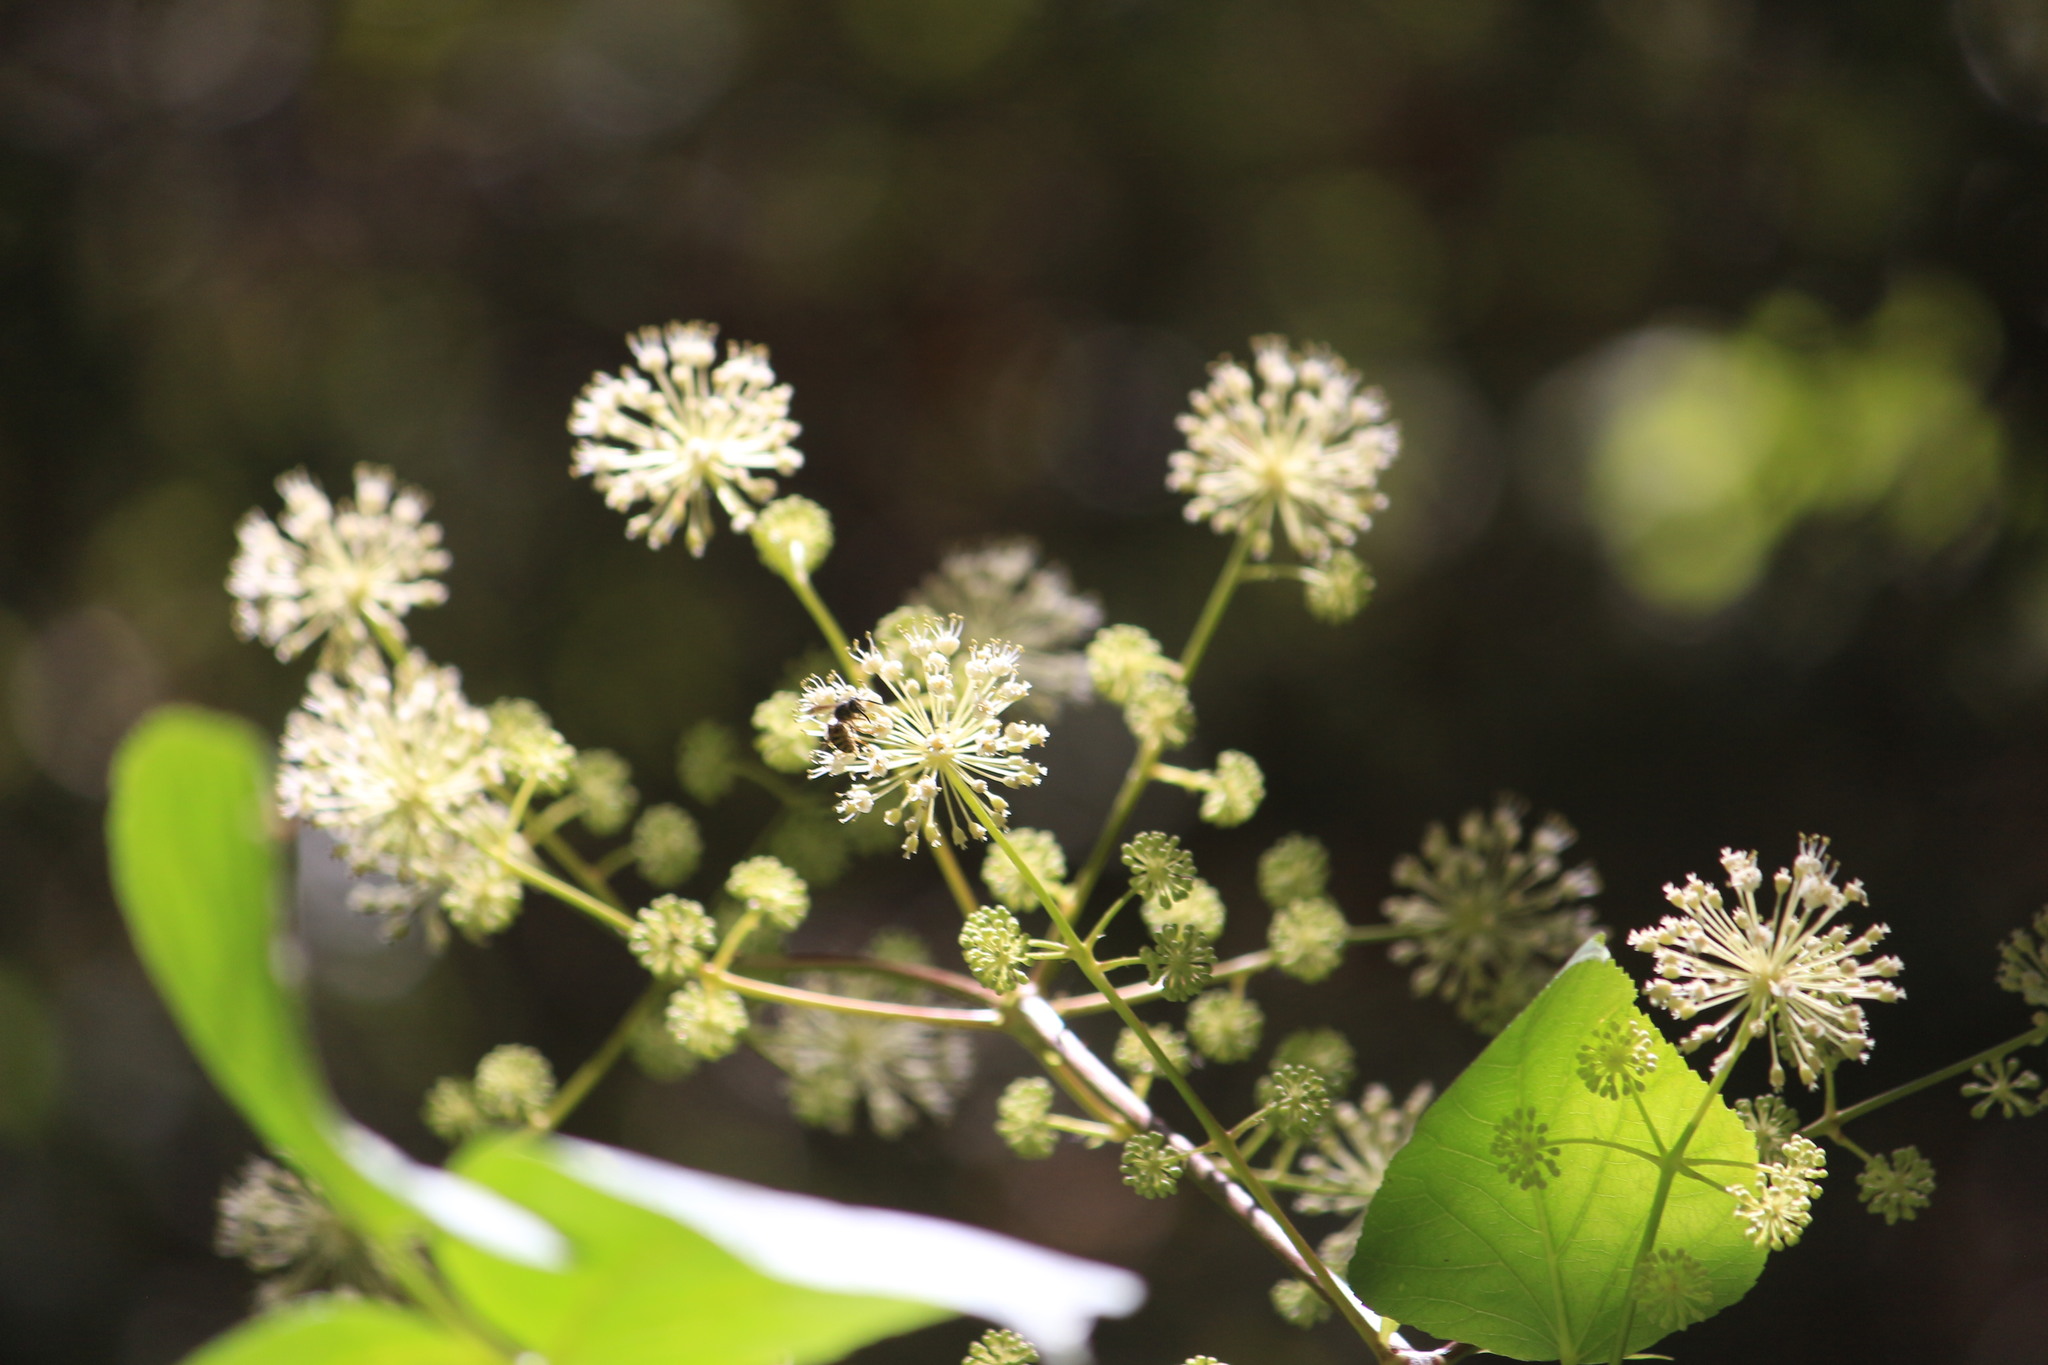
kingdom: Plantae
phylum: Tracheophyta
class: Magnoliopsida
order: Apiales
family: Araliaceae
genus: Aralia
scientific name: Aralia californica
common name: California-ginseng
